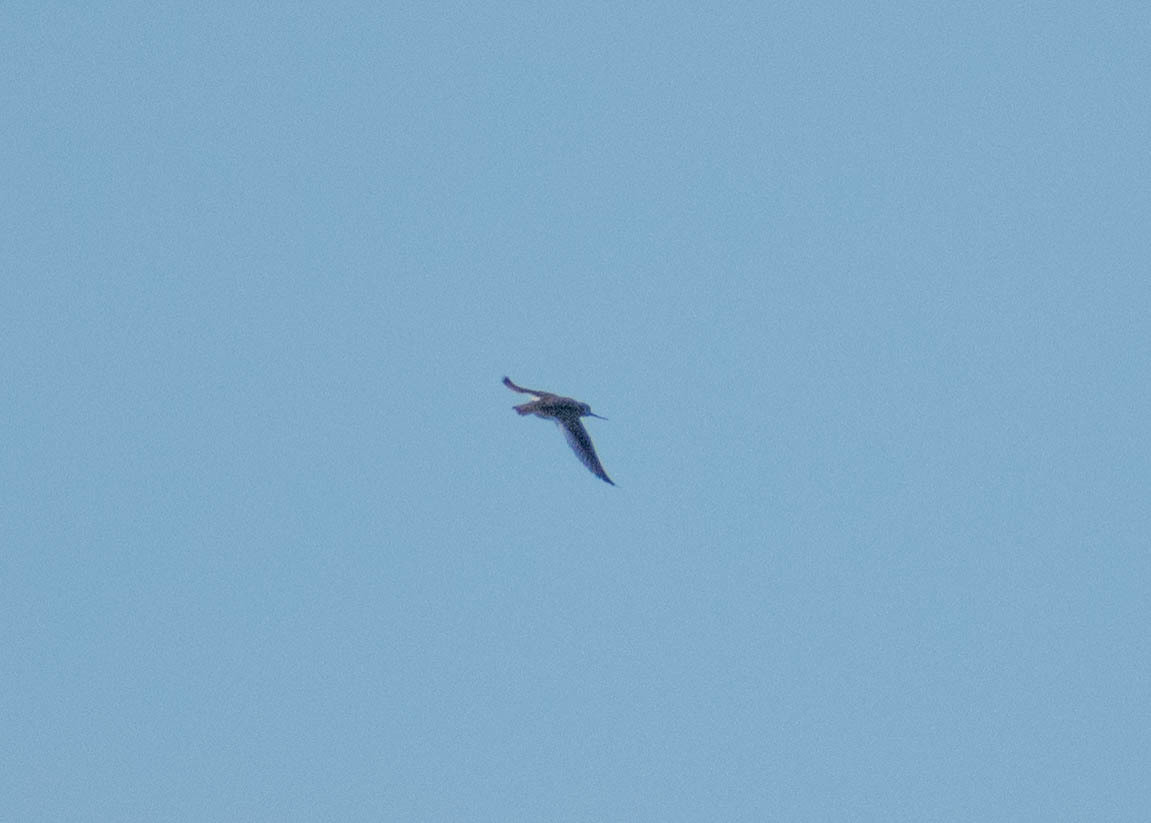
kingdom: Animalia
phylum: Chordata
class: Aves
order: Charadriiformes
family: Scolopacidae
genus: Xenus
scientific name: Xenus cinereus
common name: Terek sandpiper
